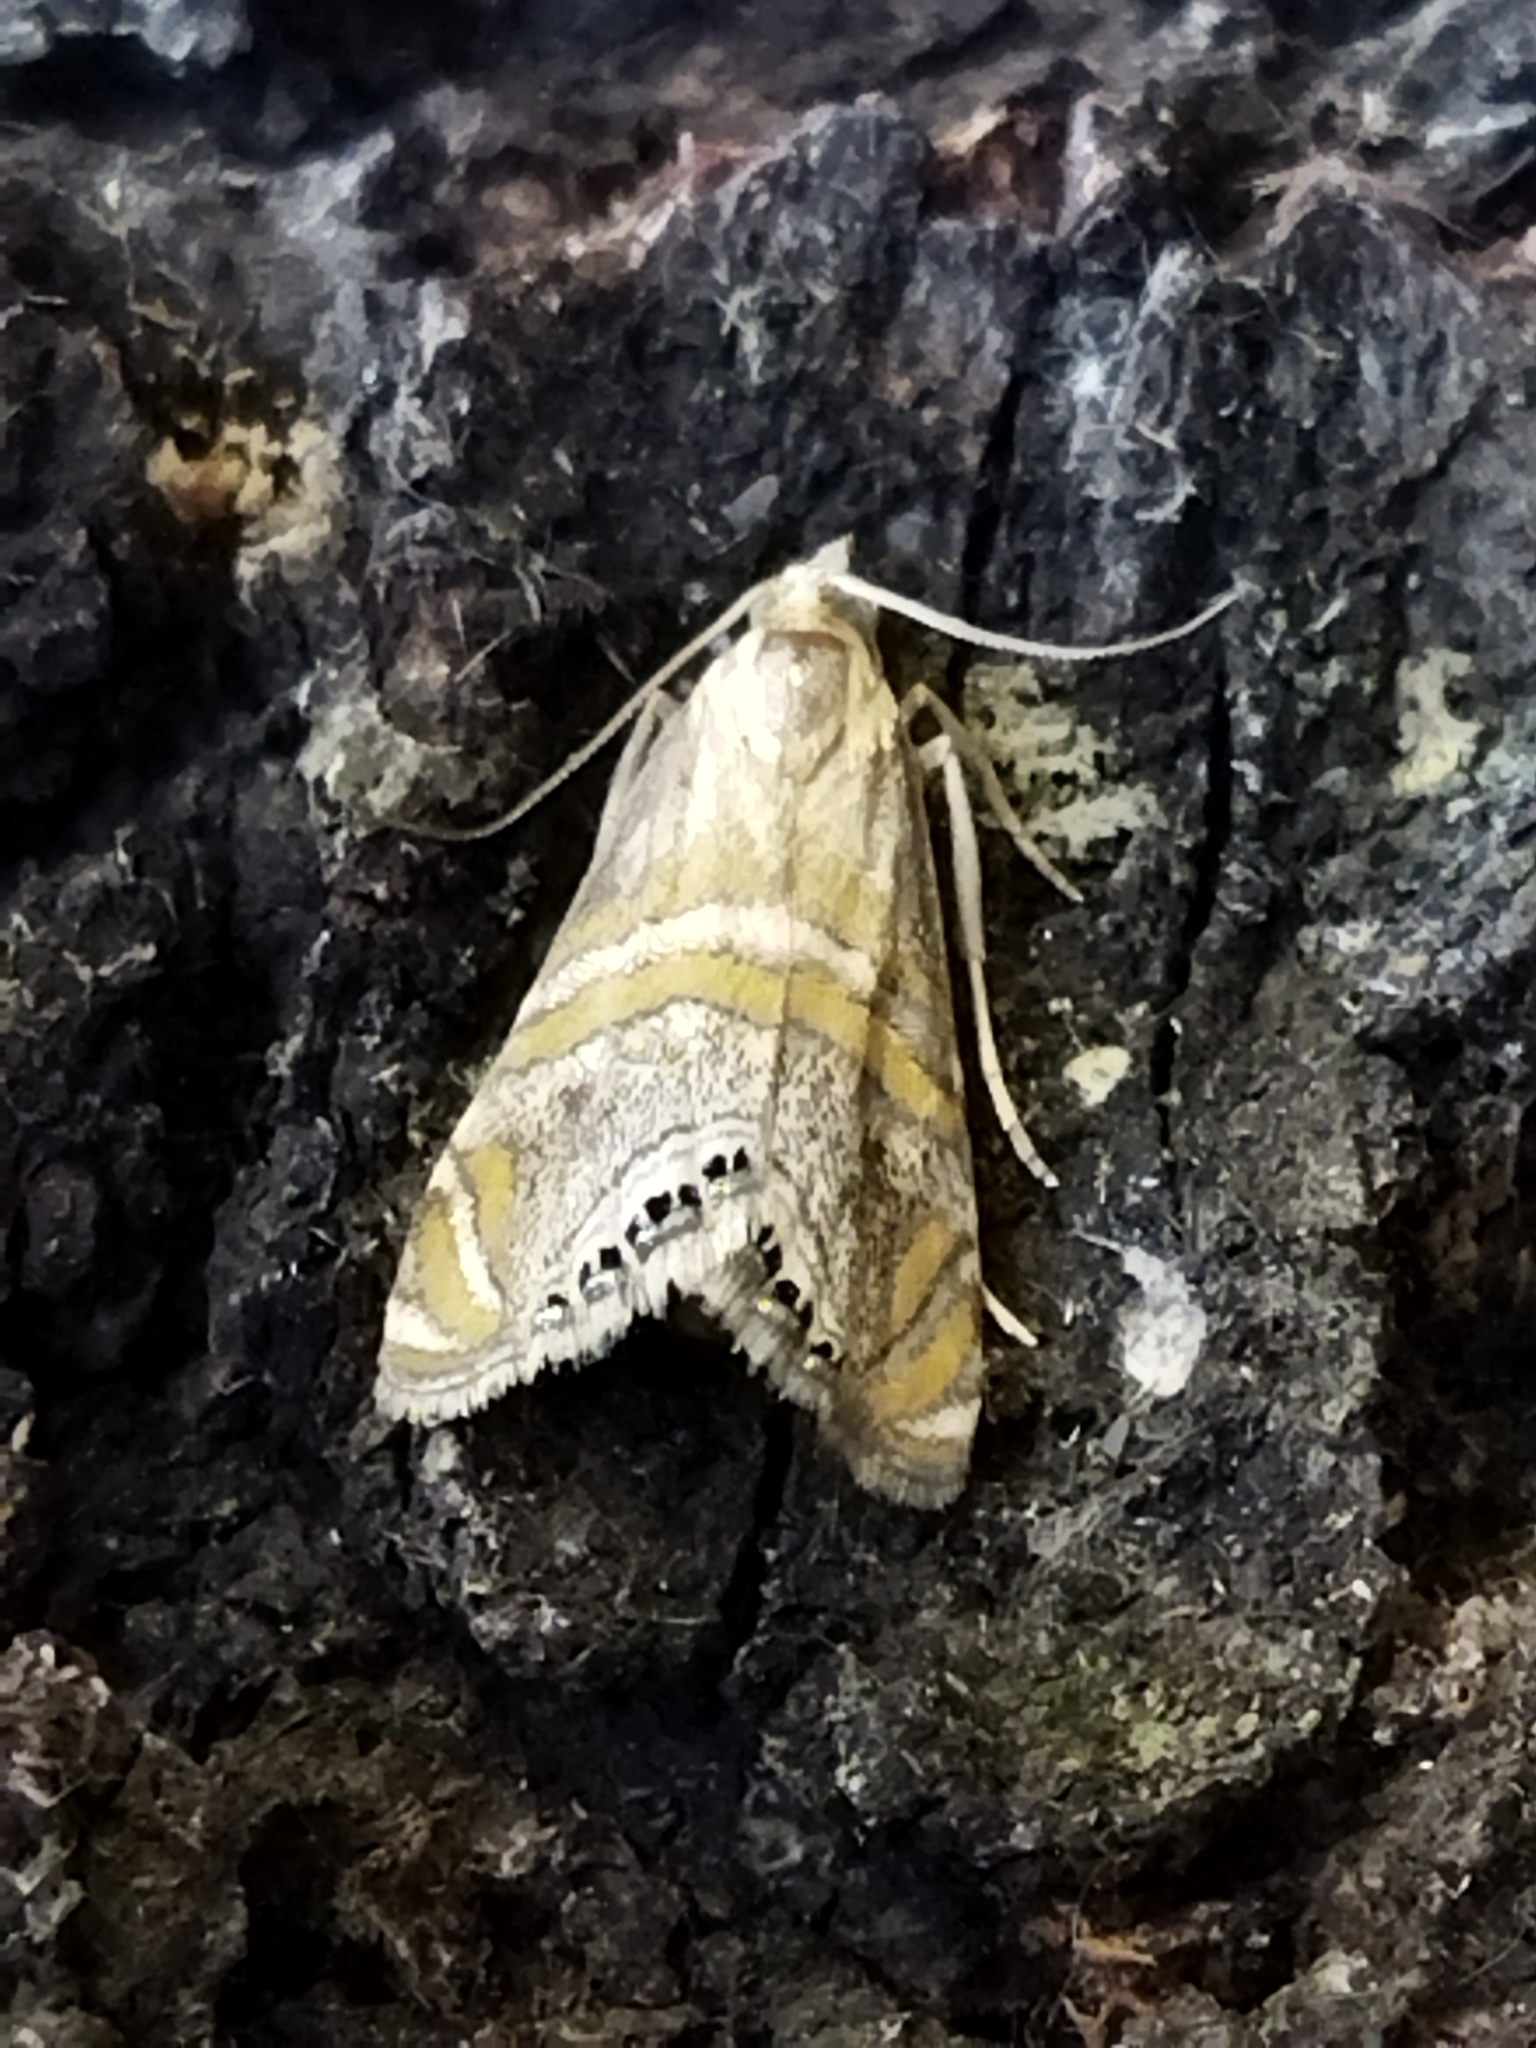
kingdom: Animalia
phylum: Arthropoda
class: Insecta
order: Lepidoptera
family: Crambidae
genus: Euchromius
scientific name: Euchromius bella
